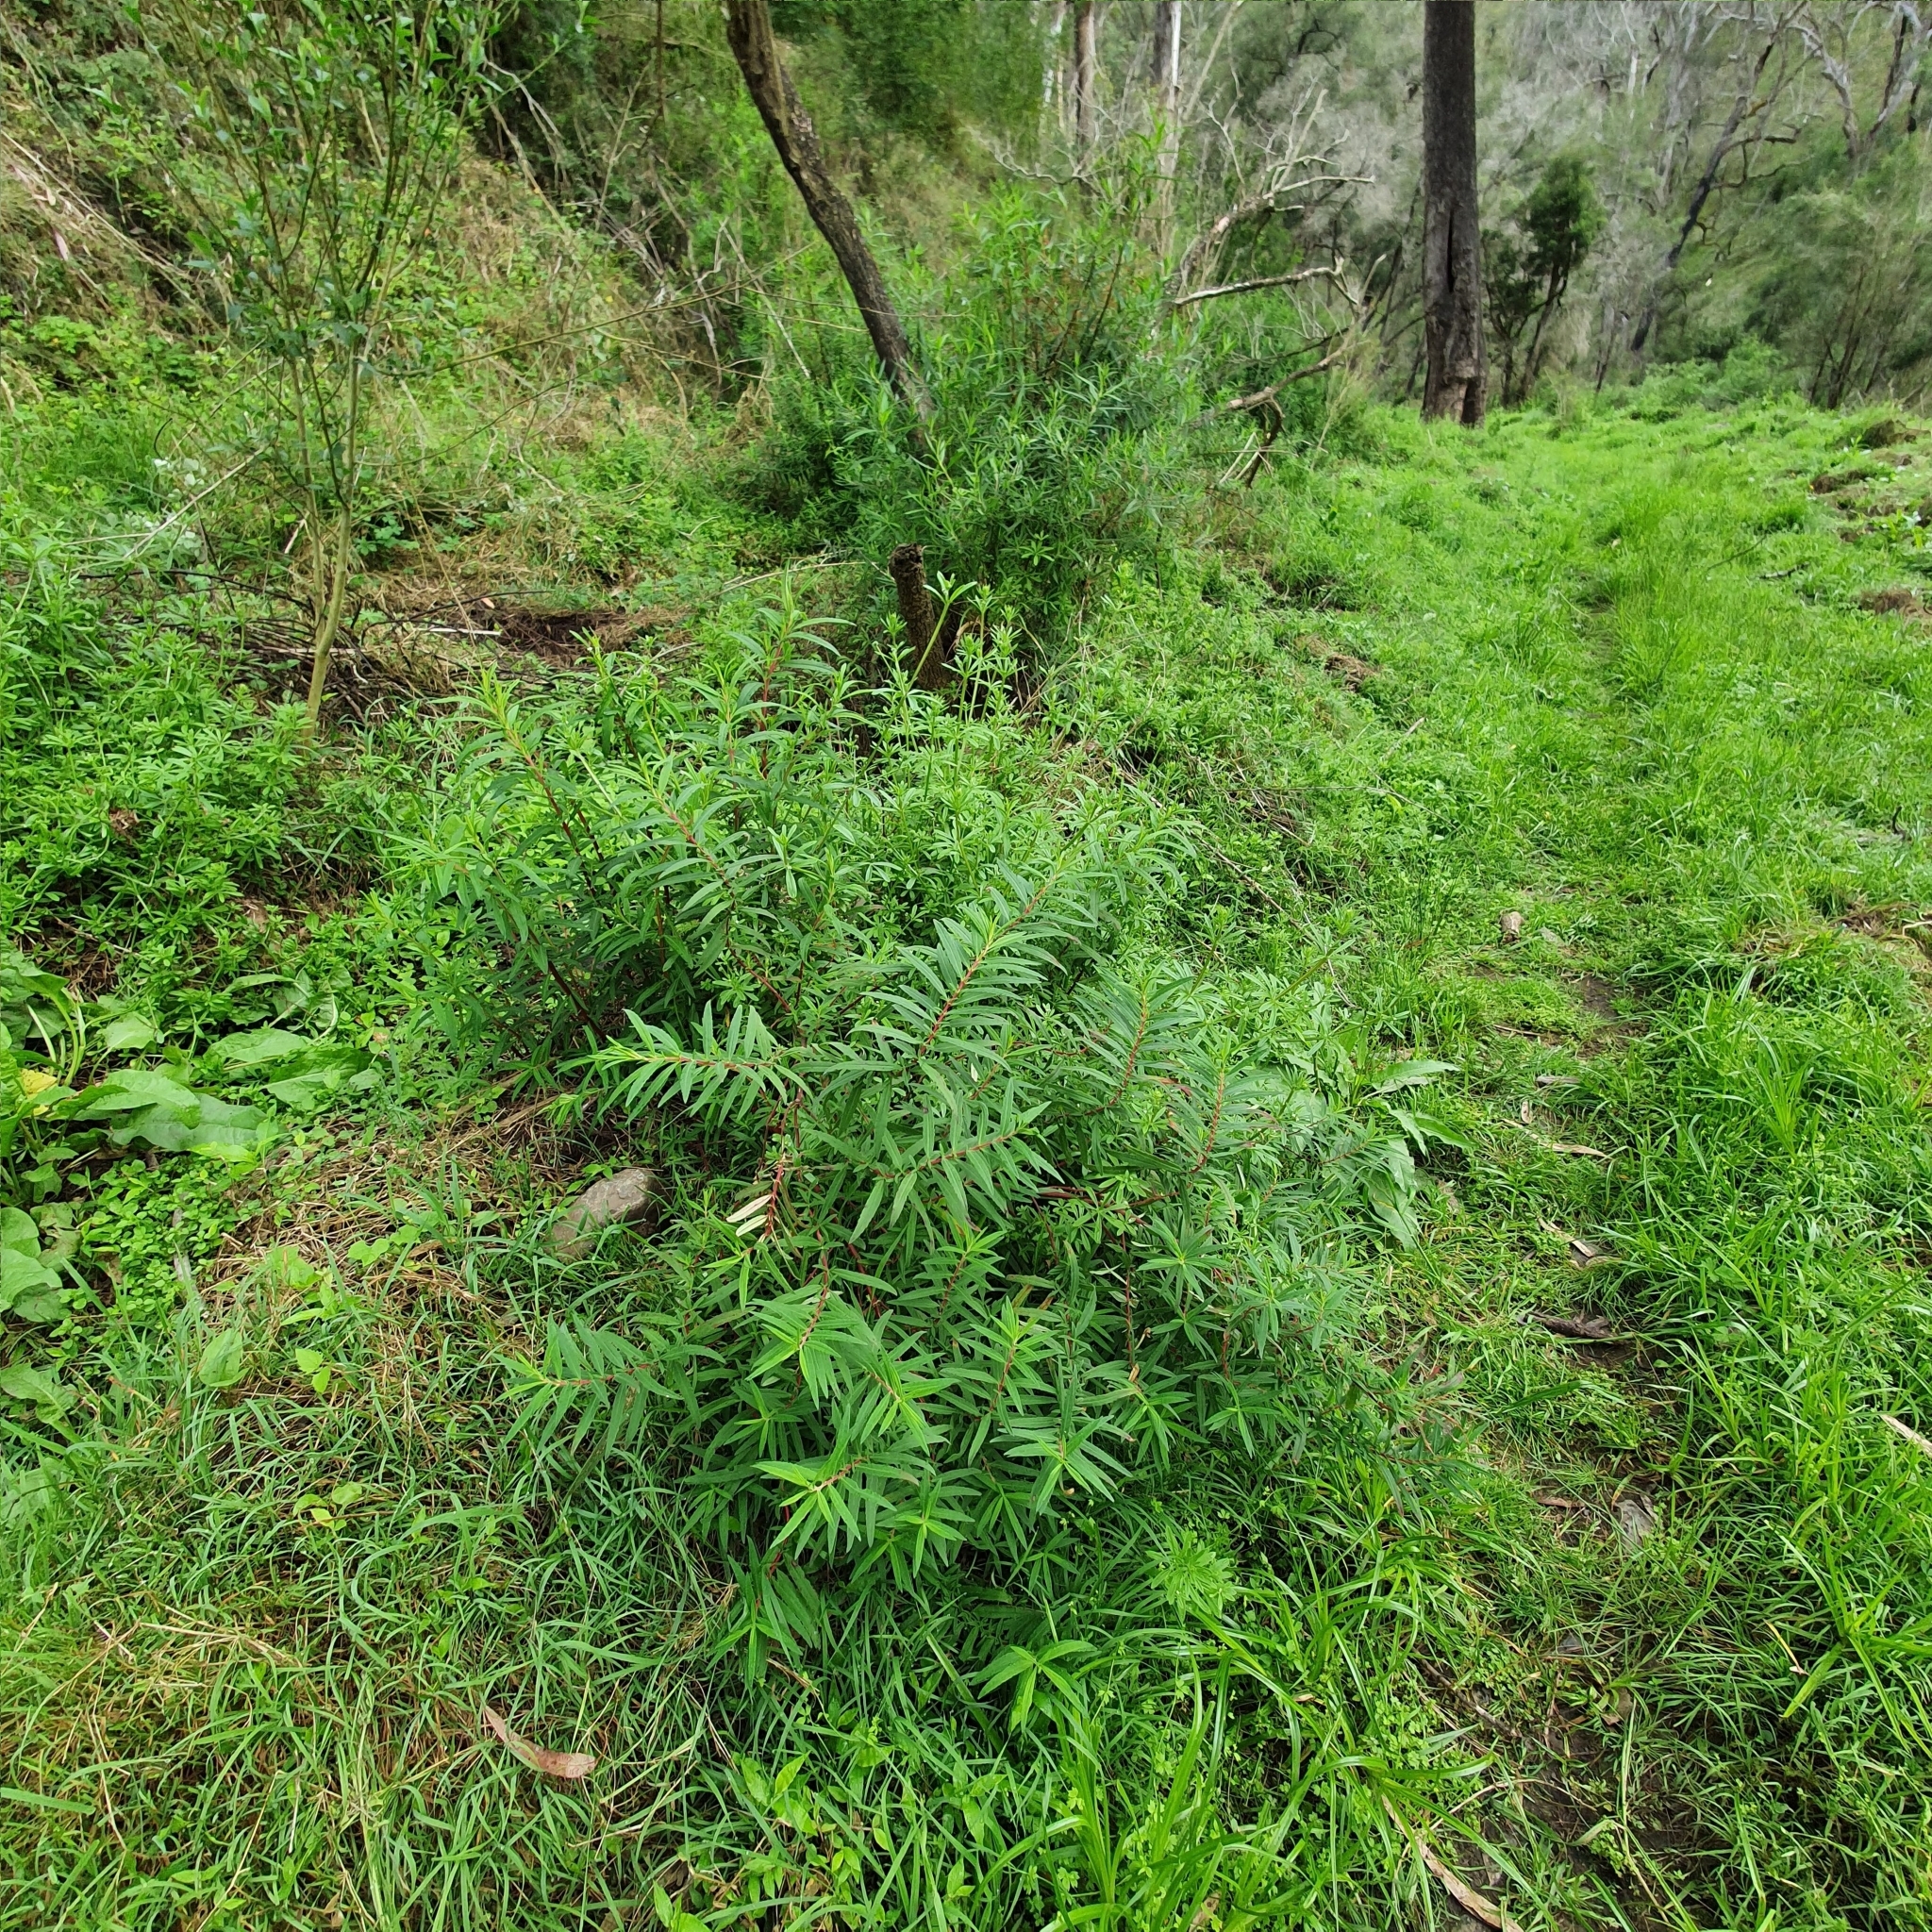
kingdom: Plantae
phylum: Tracheophyta
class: Magnoliopsida
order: Saxifragales
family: Haloragaceae
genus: Haloragis
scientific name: Haloragis exalata
